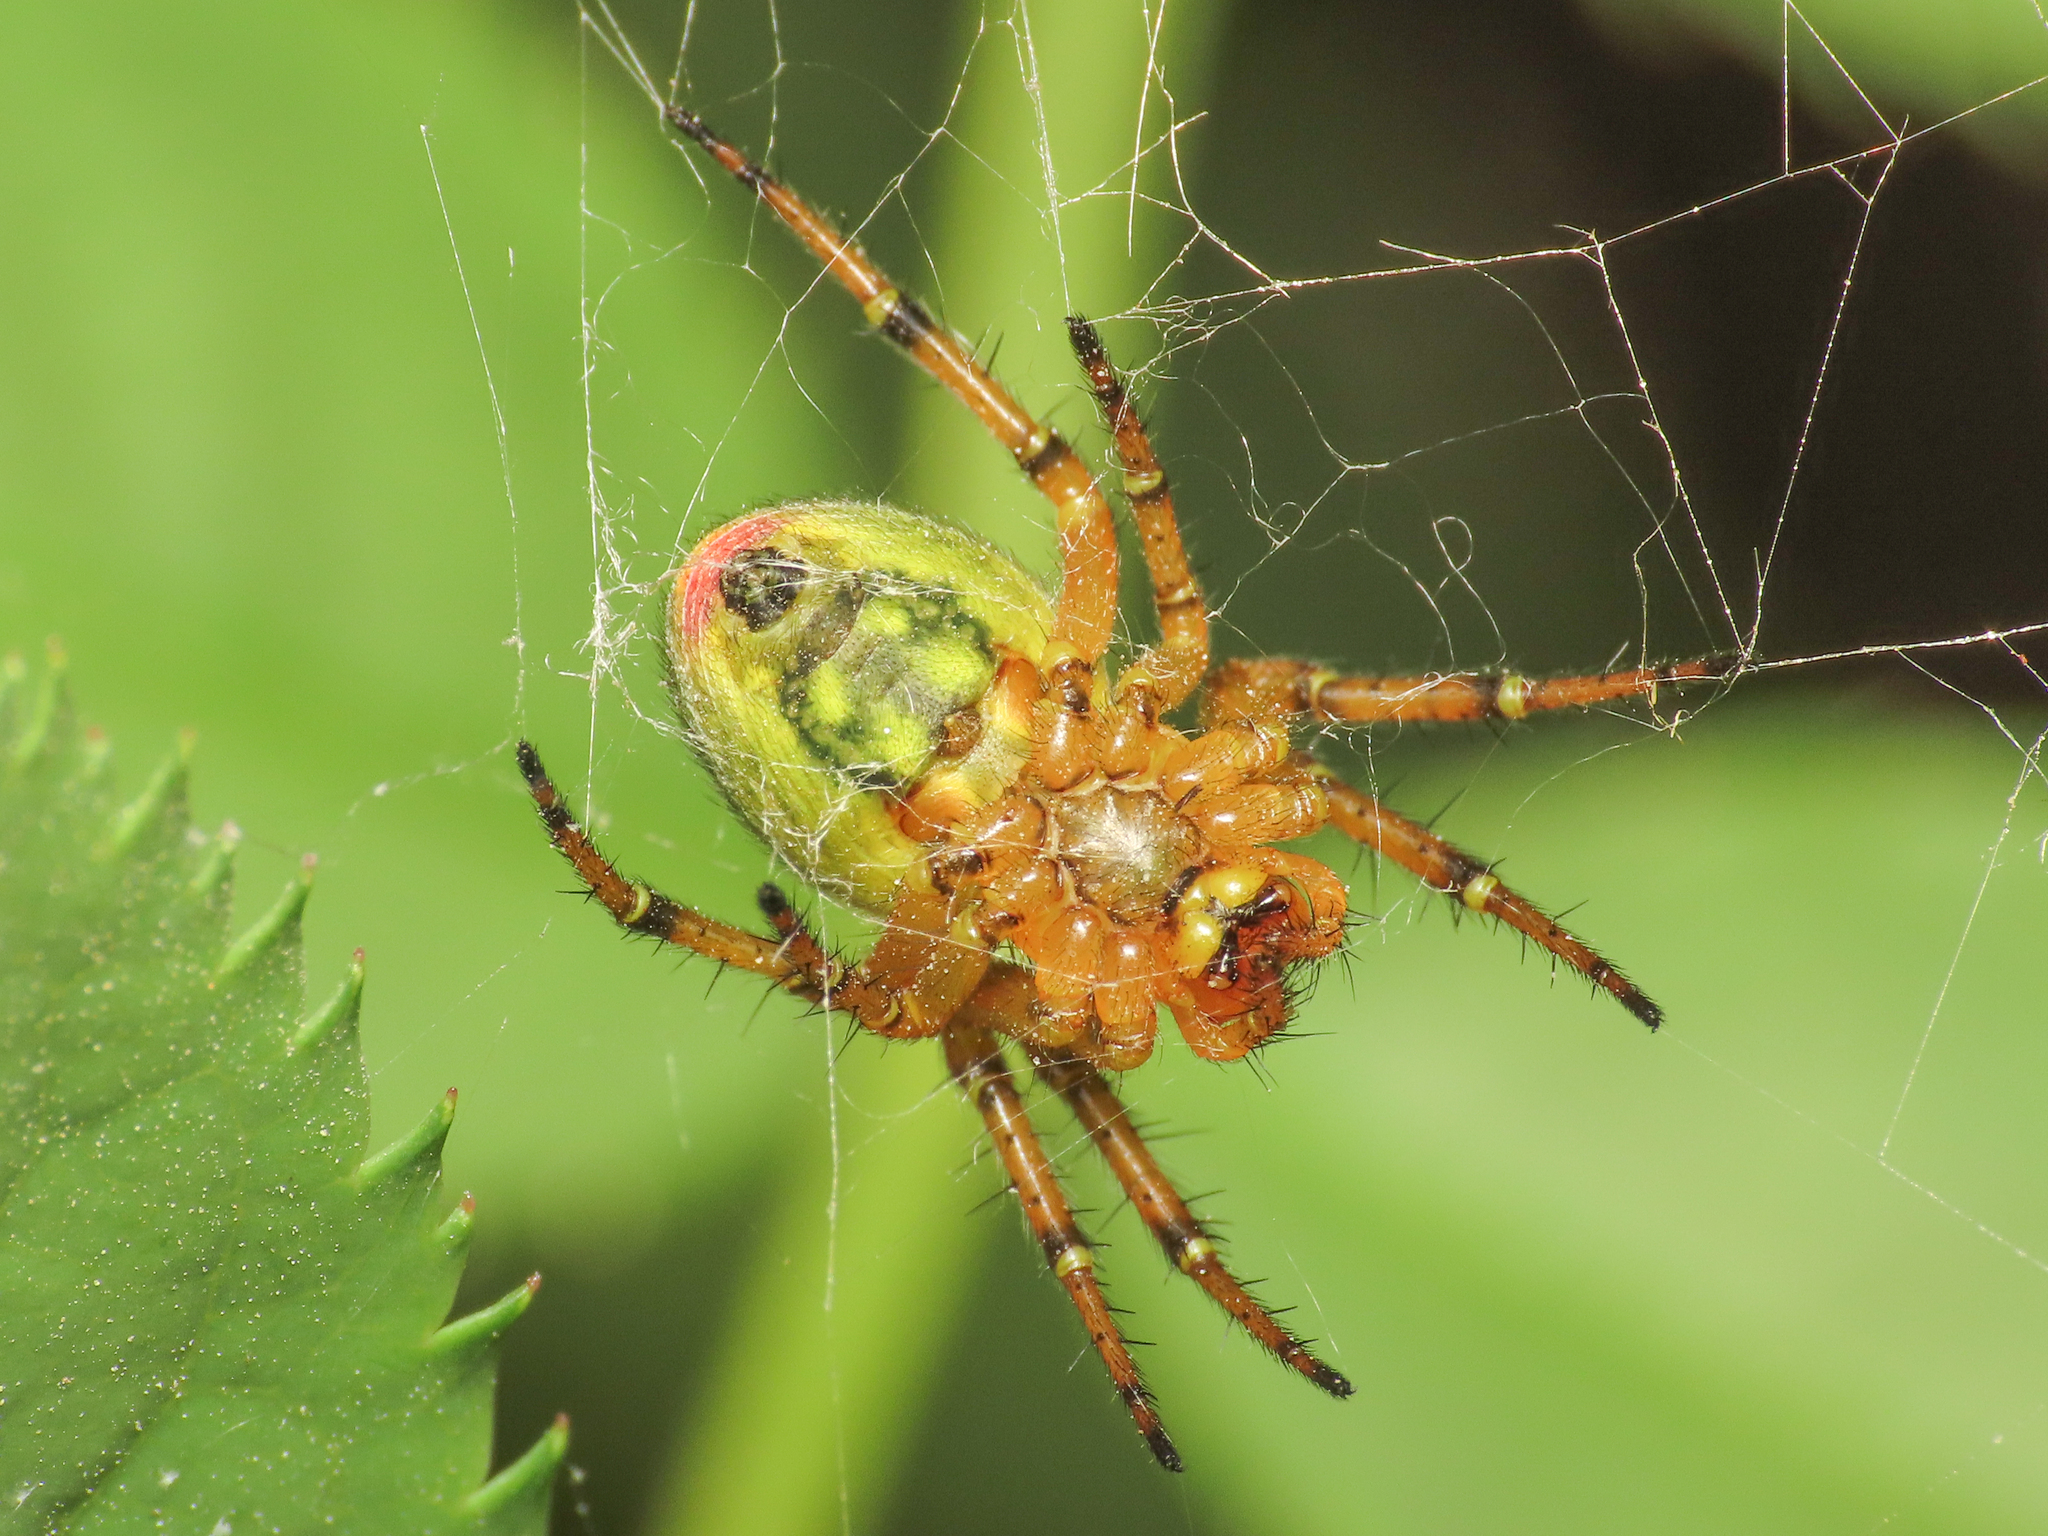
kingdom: Animalia
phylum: Arthropoda
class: Arachnida
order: Araneae
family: Araneidae
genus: Araniella
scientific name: Araniella alpica
